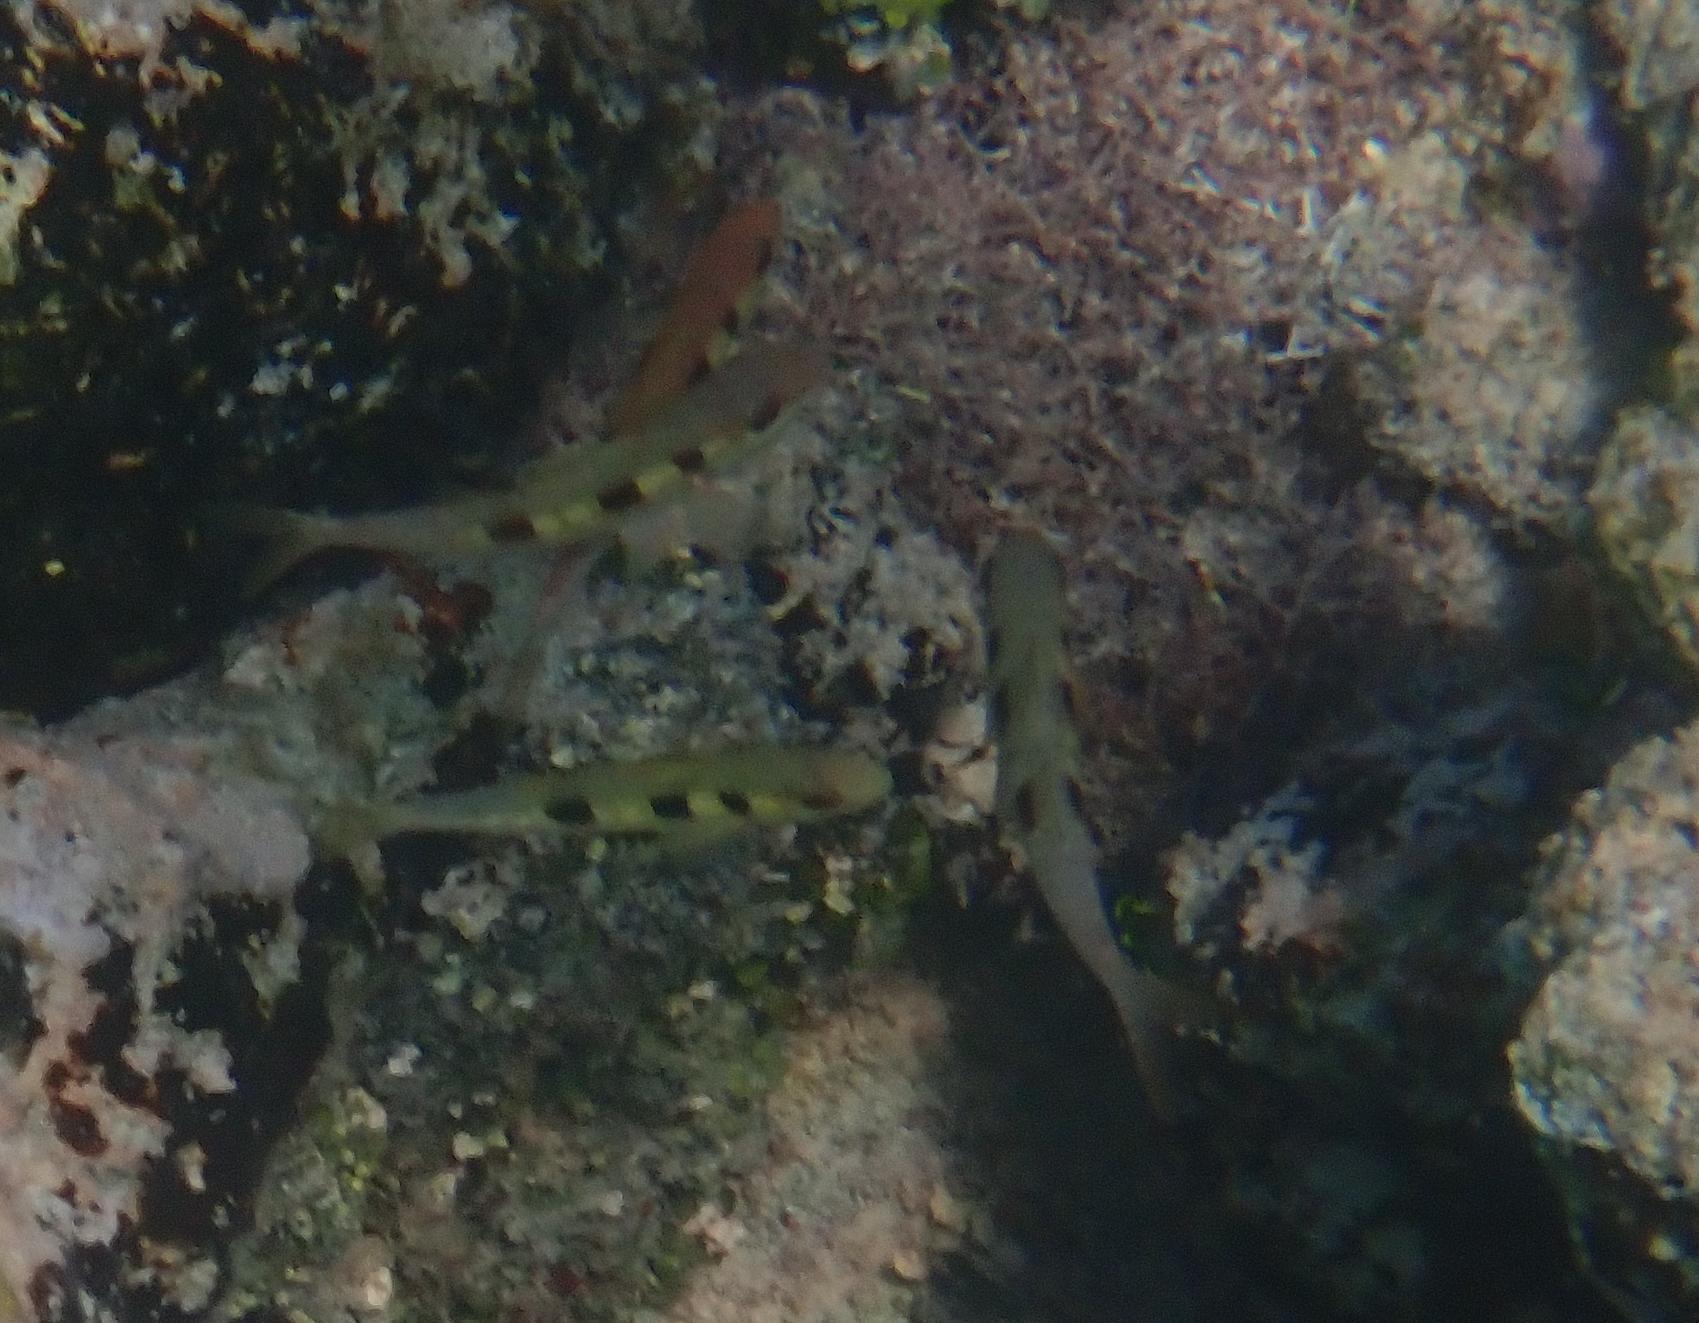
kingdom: Animalia
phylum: Chordata
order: Perciformes
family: Mullidae
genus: Pseudupeneus
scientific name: Pseudupeneus maculatus
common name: Spotted goatfish
